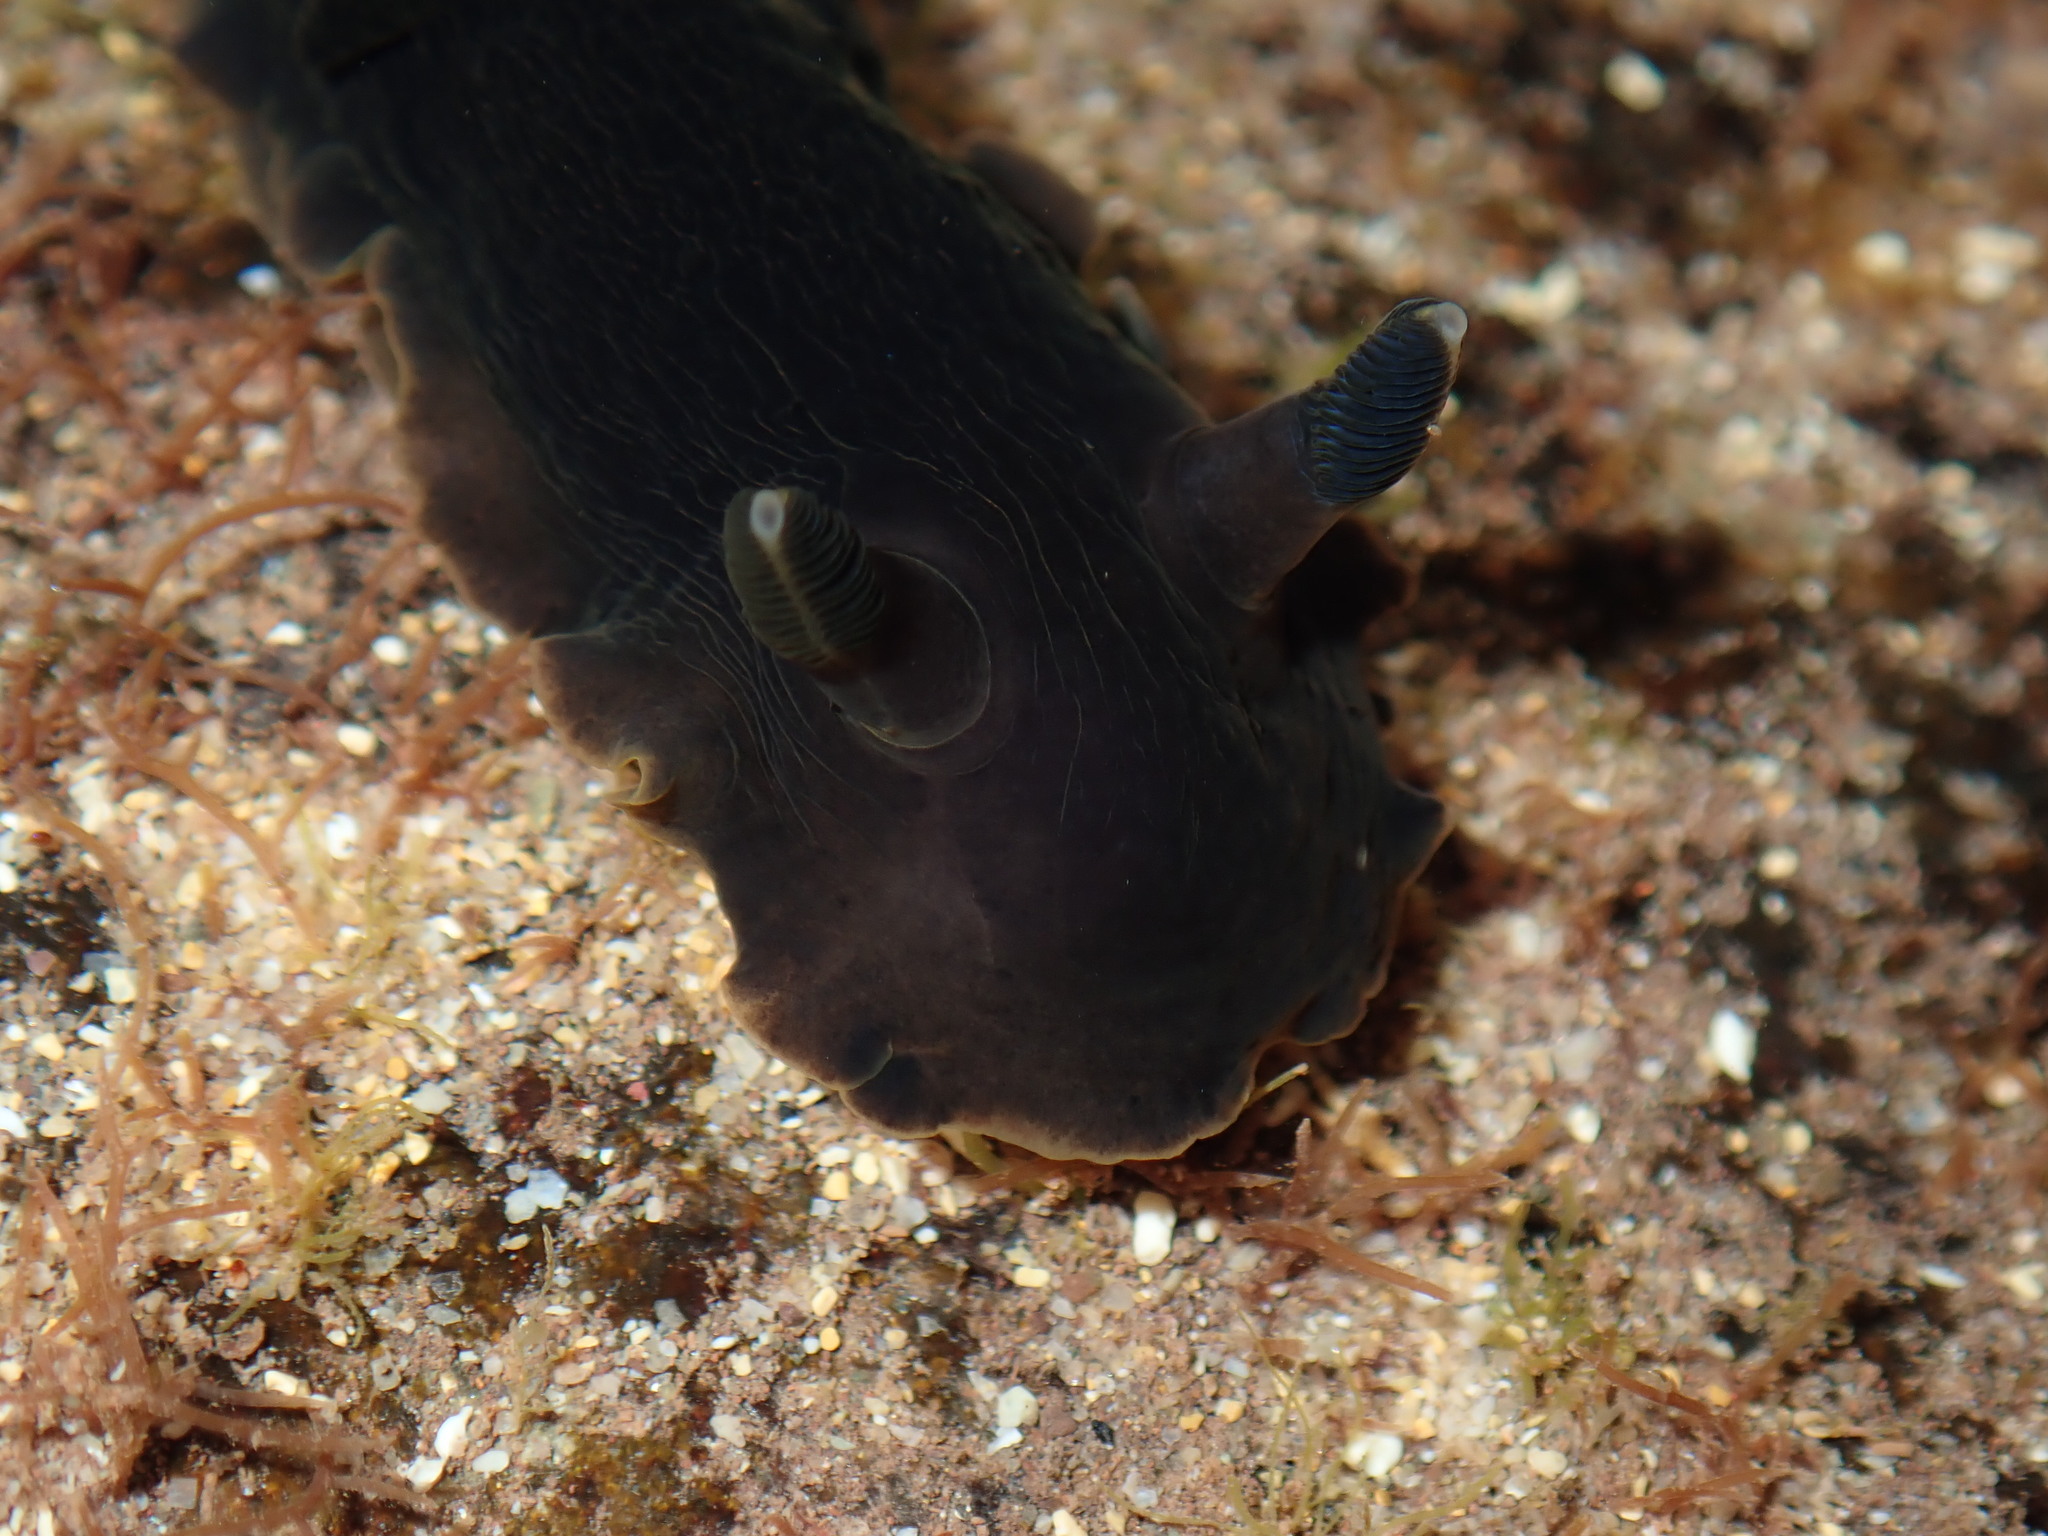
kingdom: Animalia
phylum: Mollusca
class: Gastropoda
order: Nudibranchia
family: Dendrodorididae
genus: Dendrodoris
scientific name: Dendrodoris arborescens
